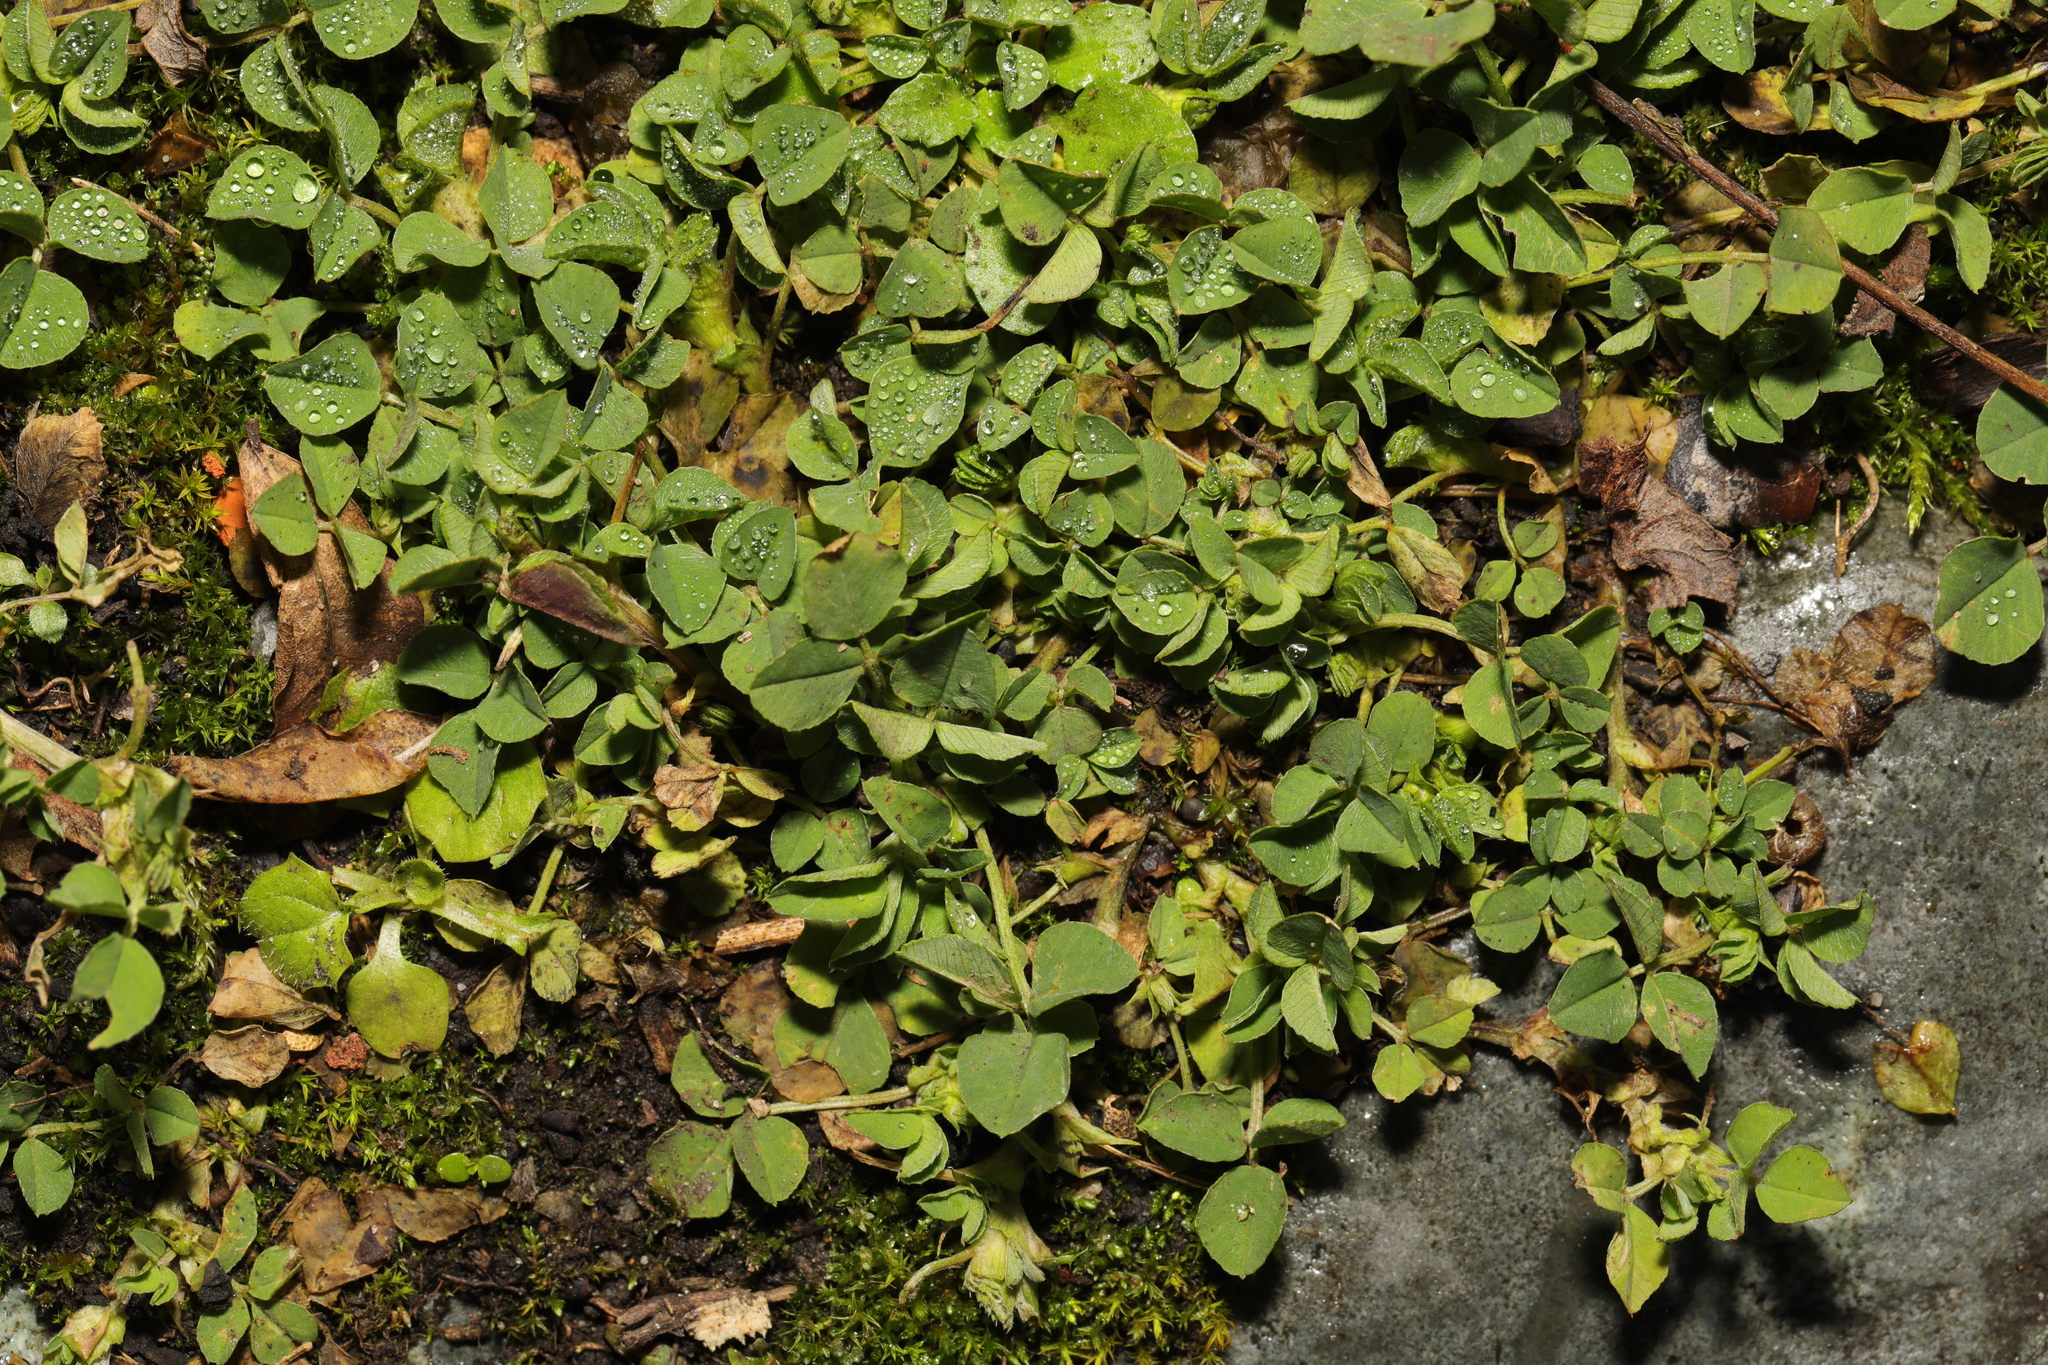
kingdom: Plantae
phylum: Tracheophyta
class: Magnoliopsida
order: Fabales
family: Fabaceae
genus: Medicago
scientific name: Medicago lupulina
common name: Black medick
